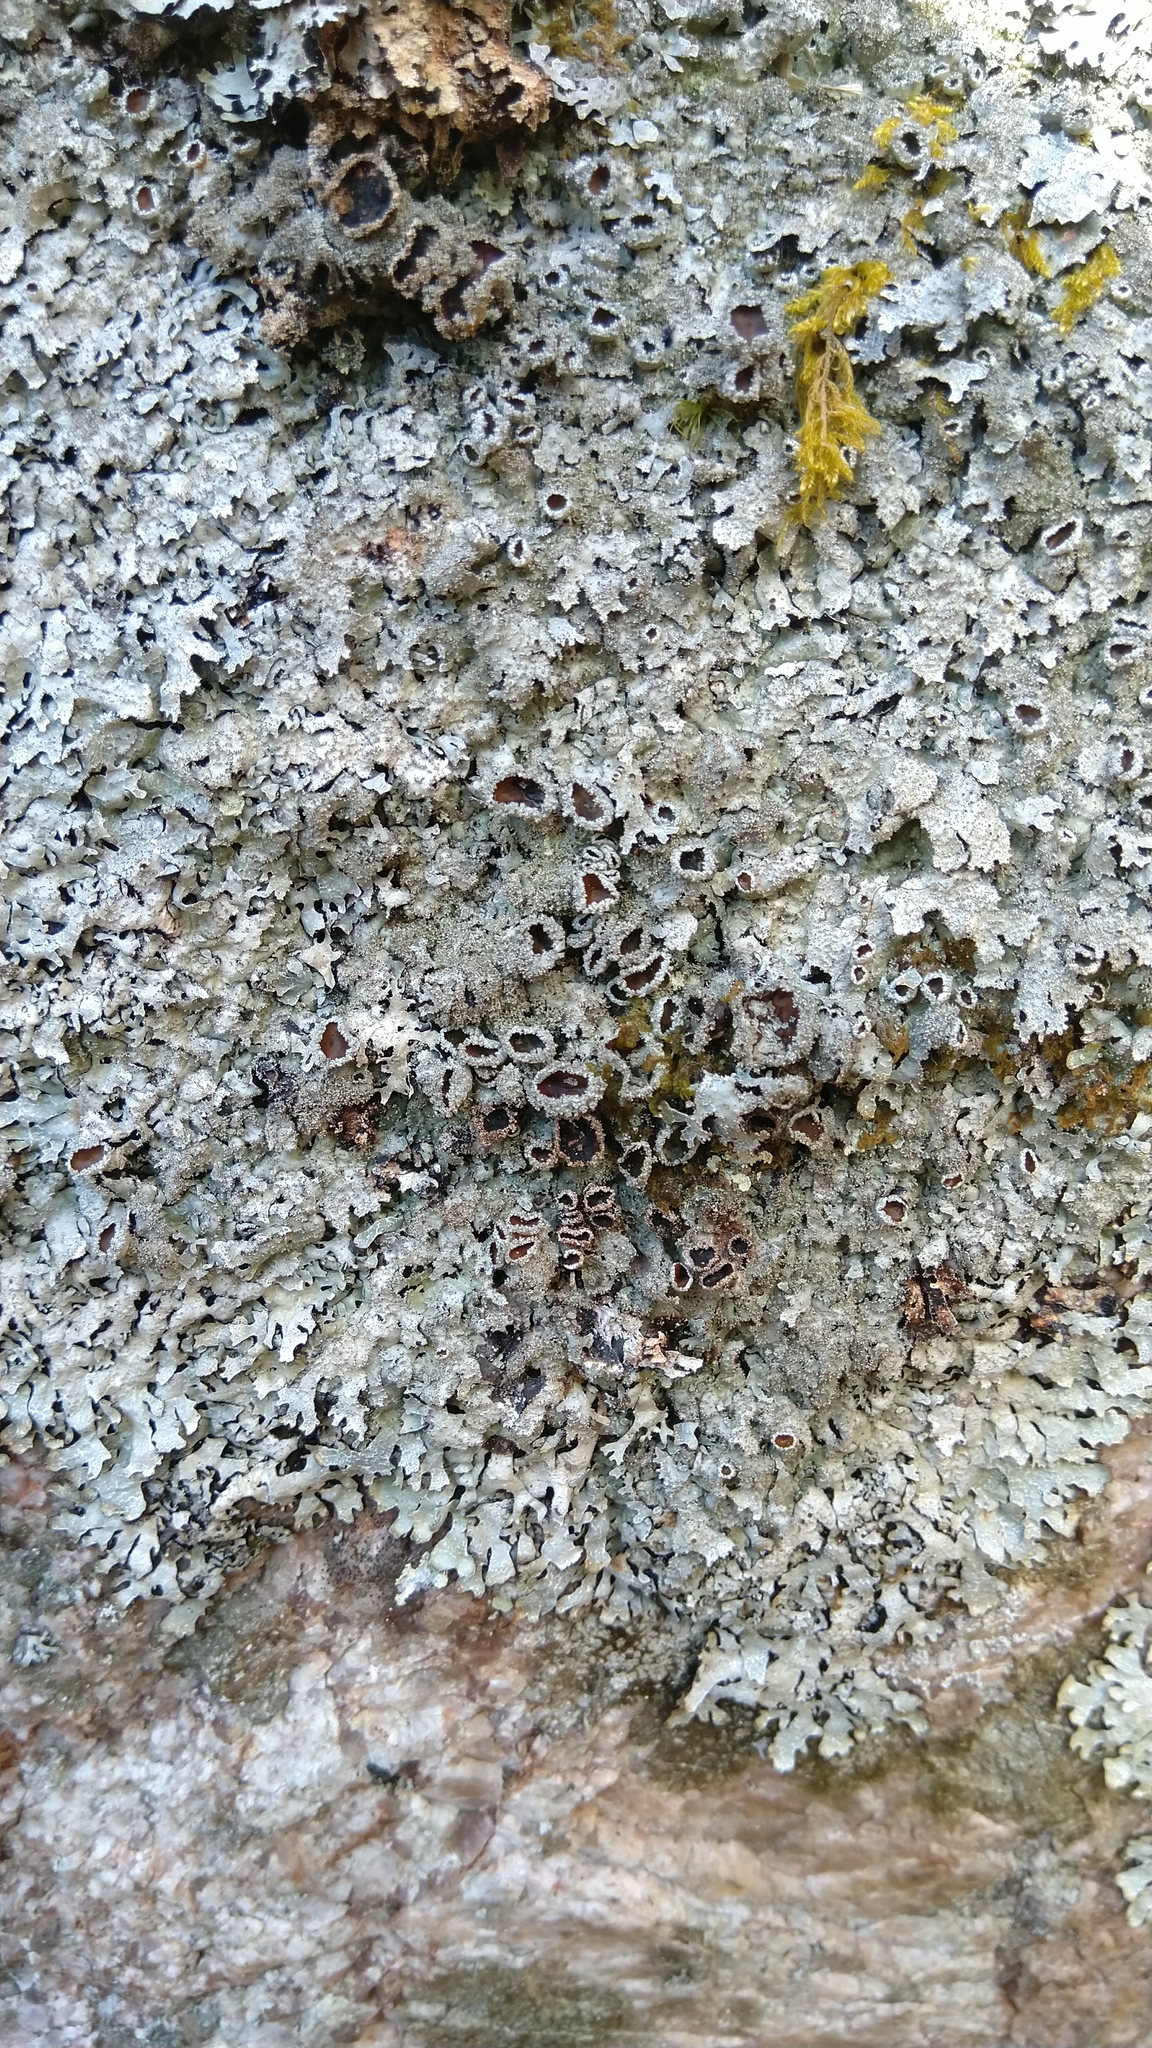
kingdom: Fungi
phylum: Ascomycota
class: Lecanoromycetes
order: Lecanorales
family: Parmeliaceae
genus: Parmelia
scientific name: Parmelia saxatilis
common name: Salted shield lichen
